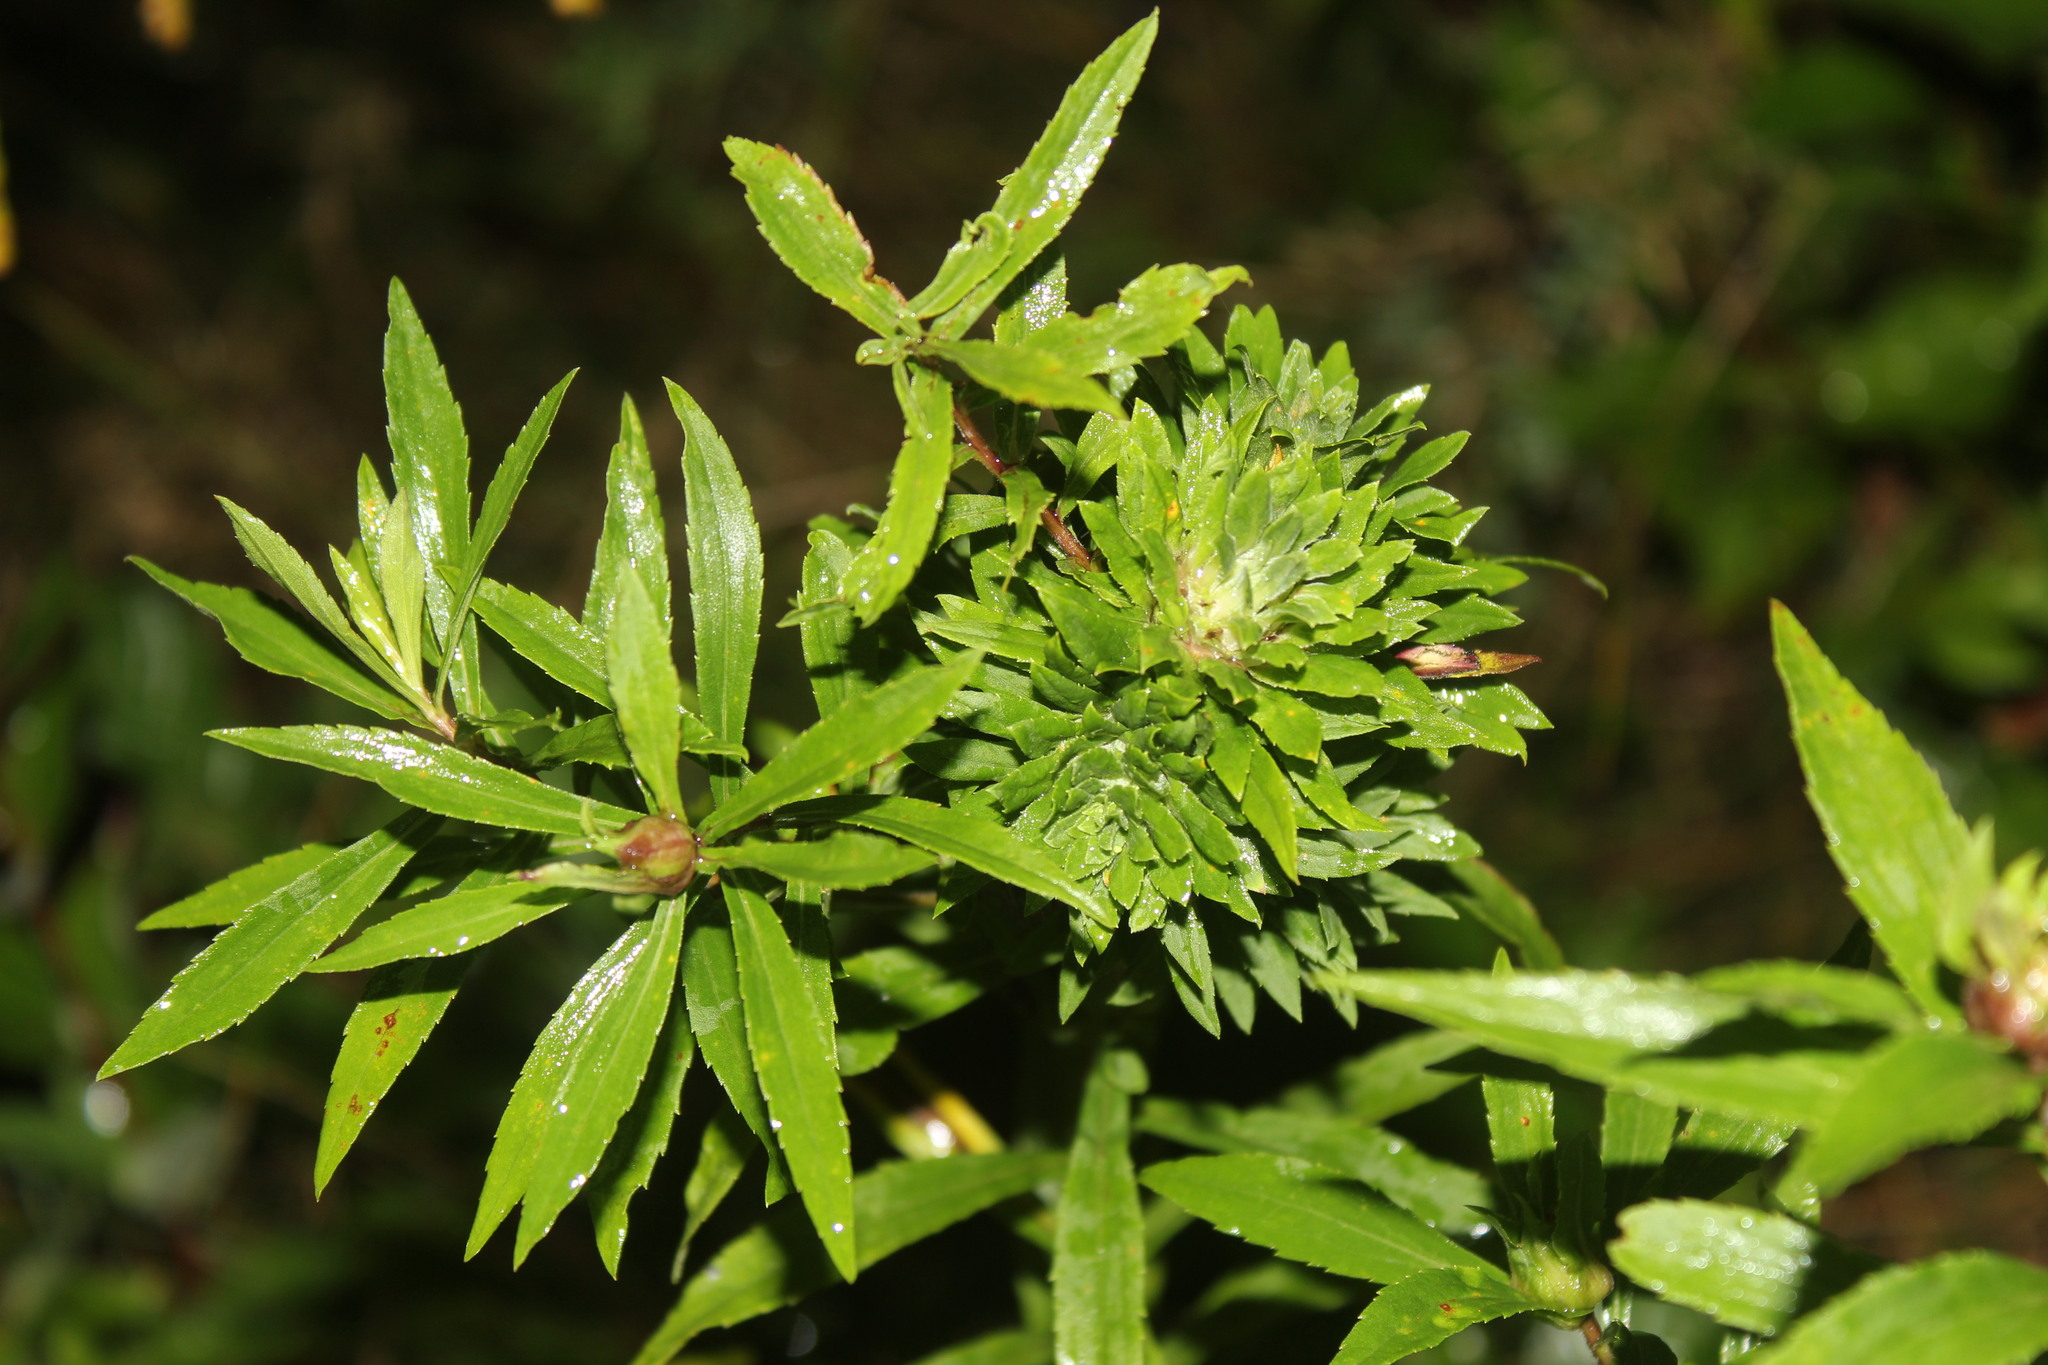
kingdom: Animalia
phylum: Arthropoda
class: Insecta
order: Diptera
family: Tephritidae
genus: Procecidochares
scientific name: Procecidochares atra
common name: Goldenrod brussels sprout gall fly
